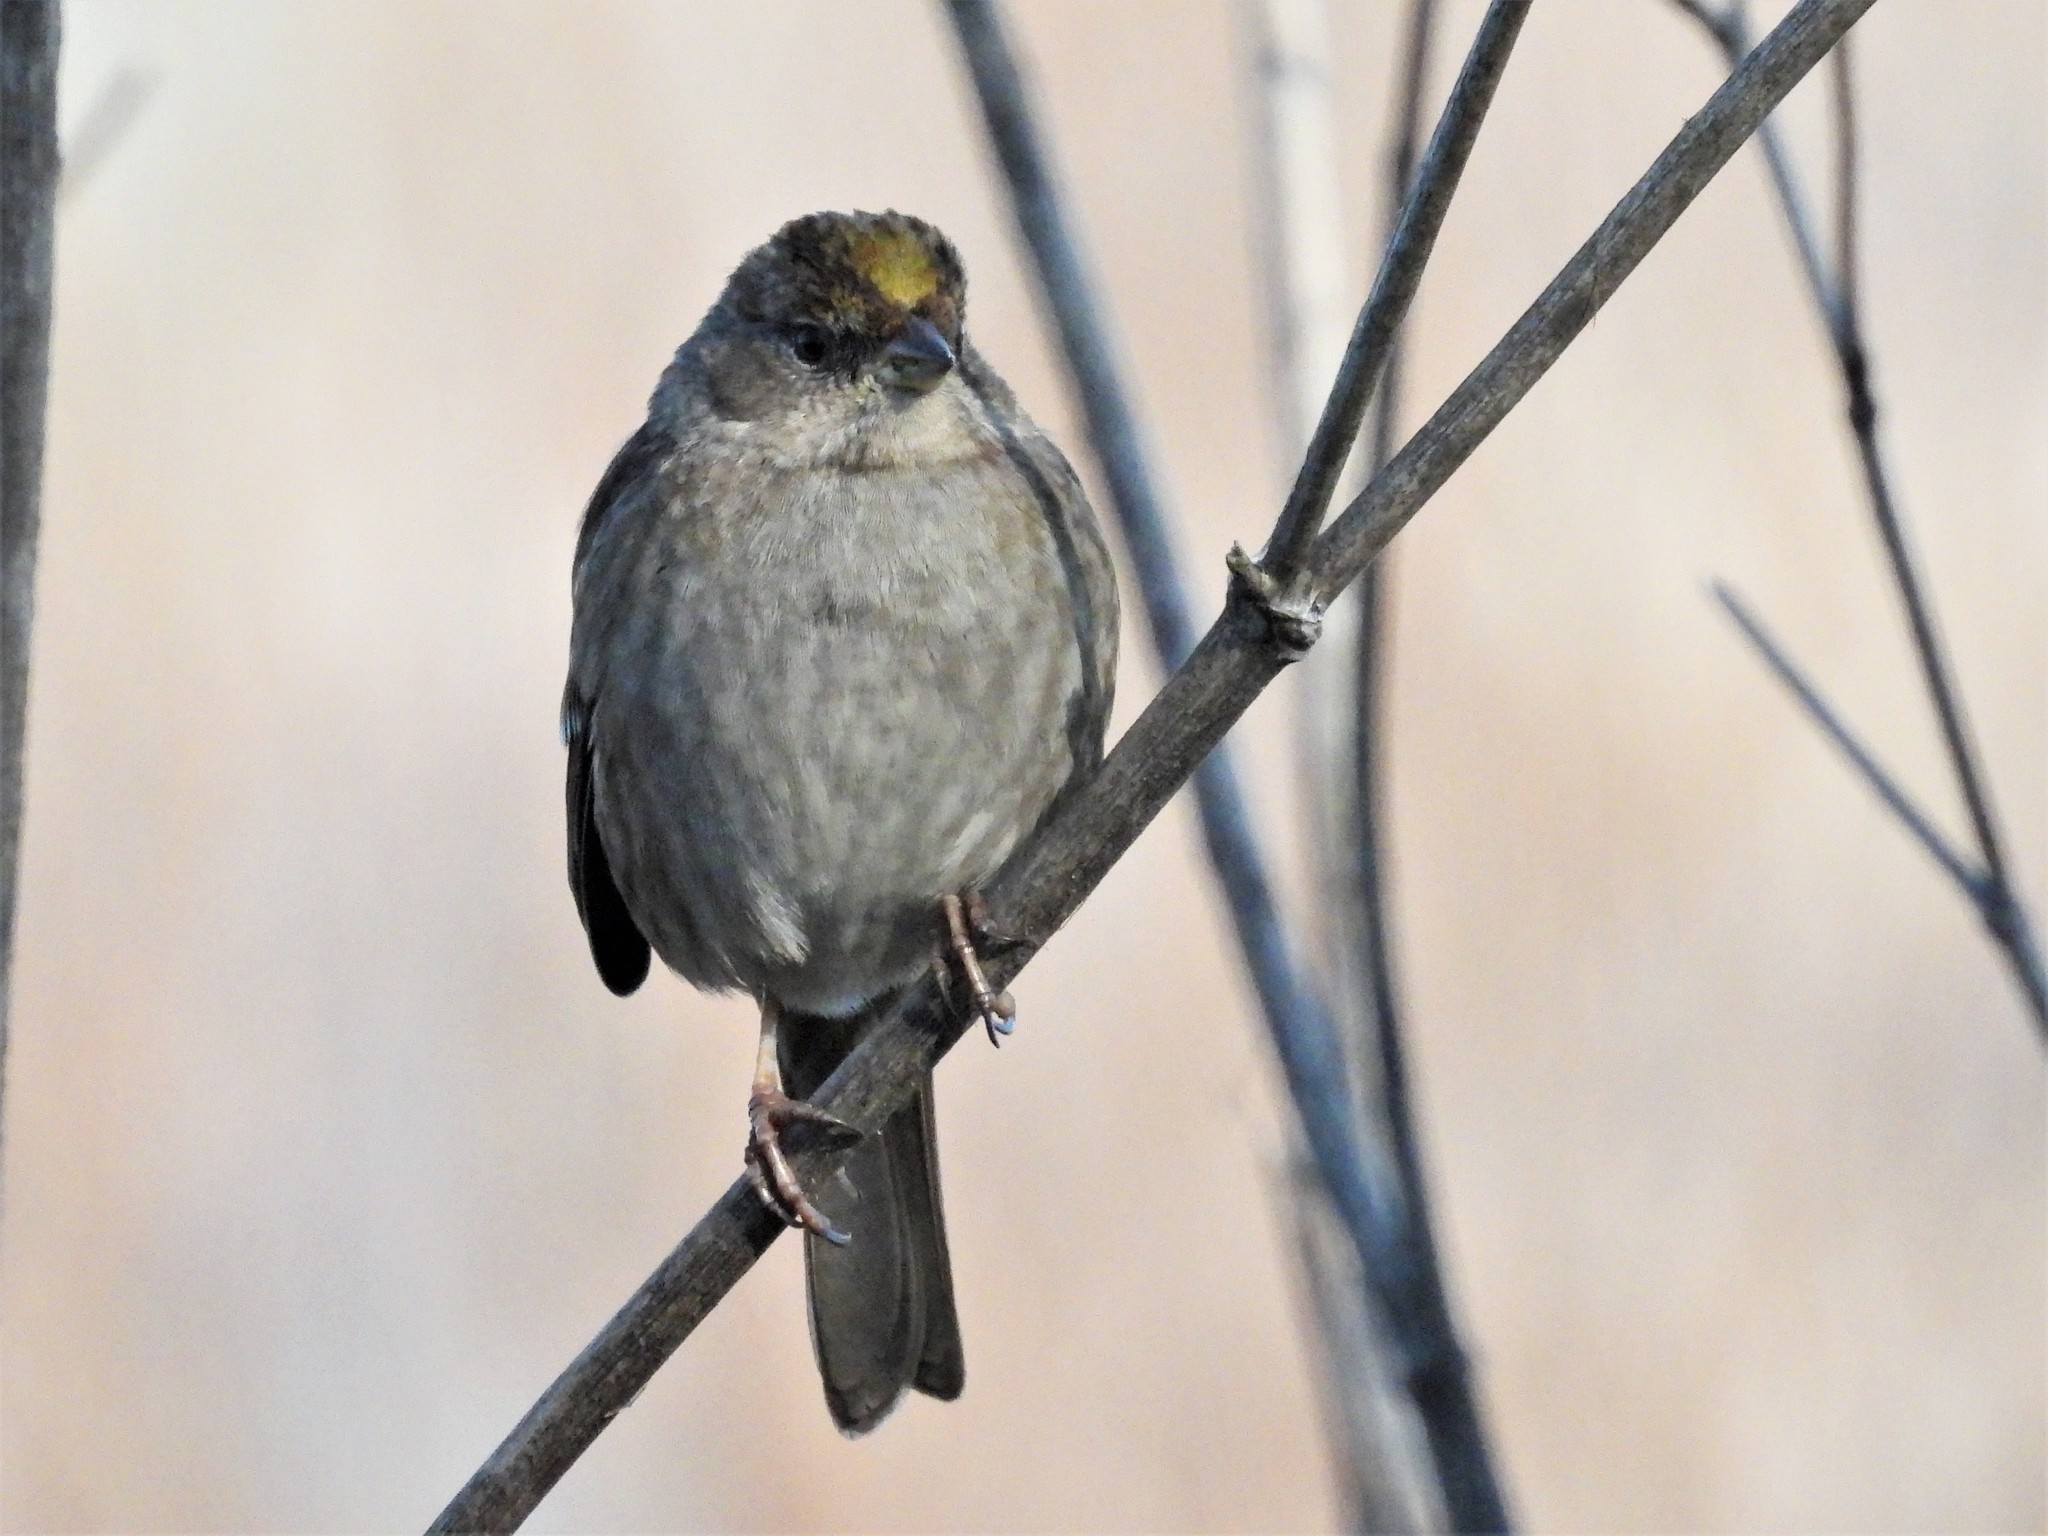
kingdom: Animalia
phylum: Chordata
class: Aves
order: Passeriformes
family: Passerellidae
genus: Zonotrichia
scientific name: Zonotrichia atricapilla
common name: Golden-crowned sparrow
